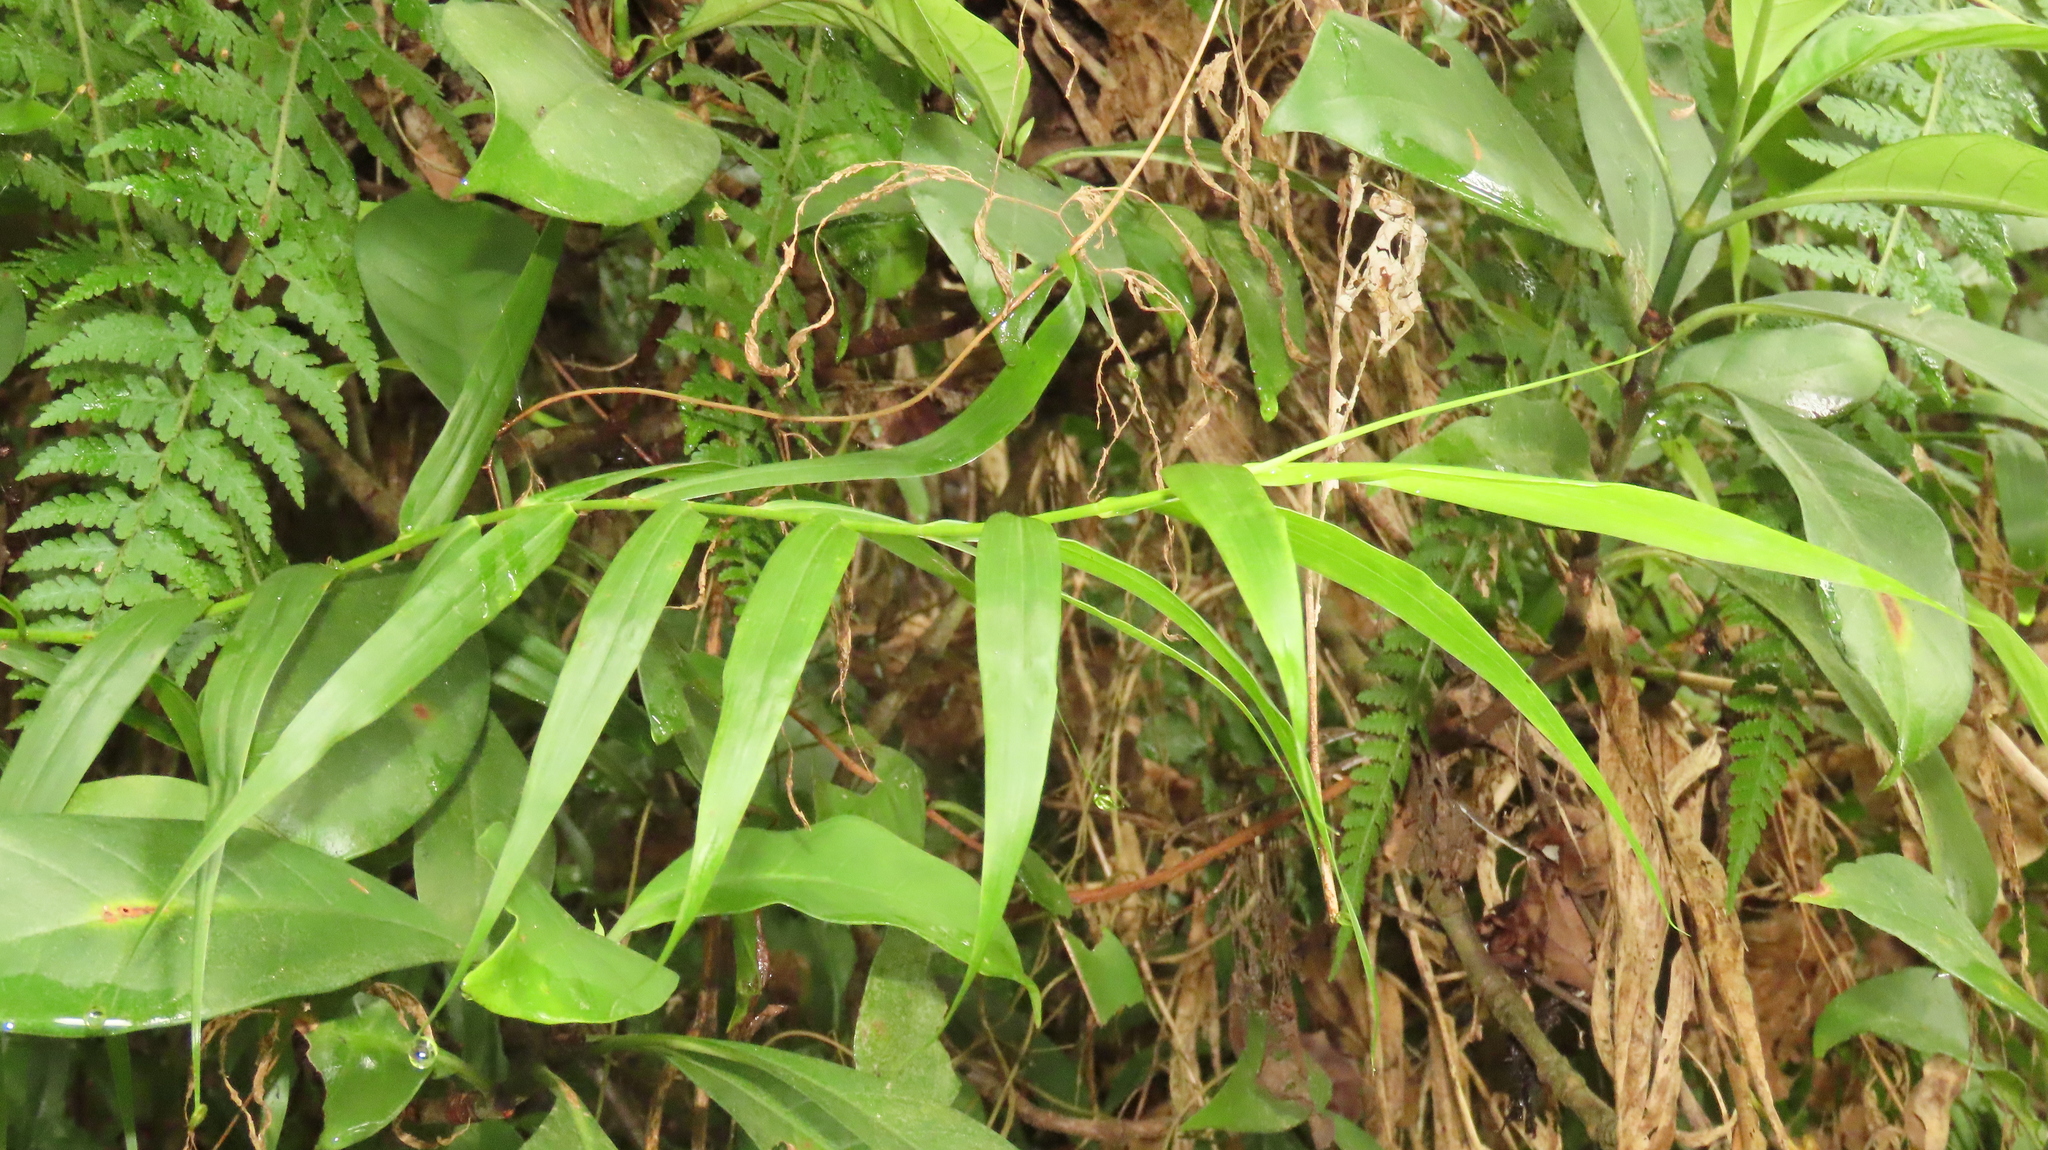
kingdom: Plantae
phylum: Tracheophyta
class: Liliopsida
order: Poales
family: Flagellariaceae
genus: Flagellaria
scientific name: Flagellaria indica
